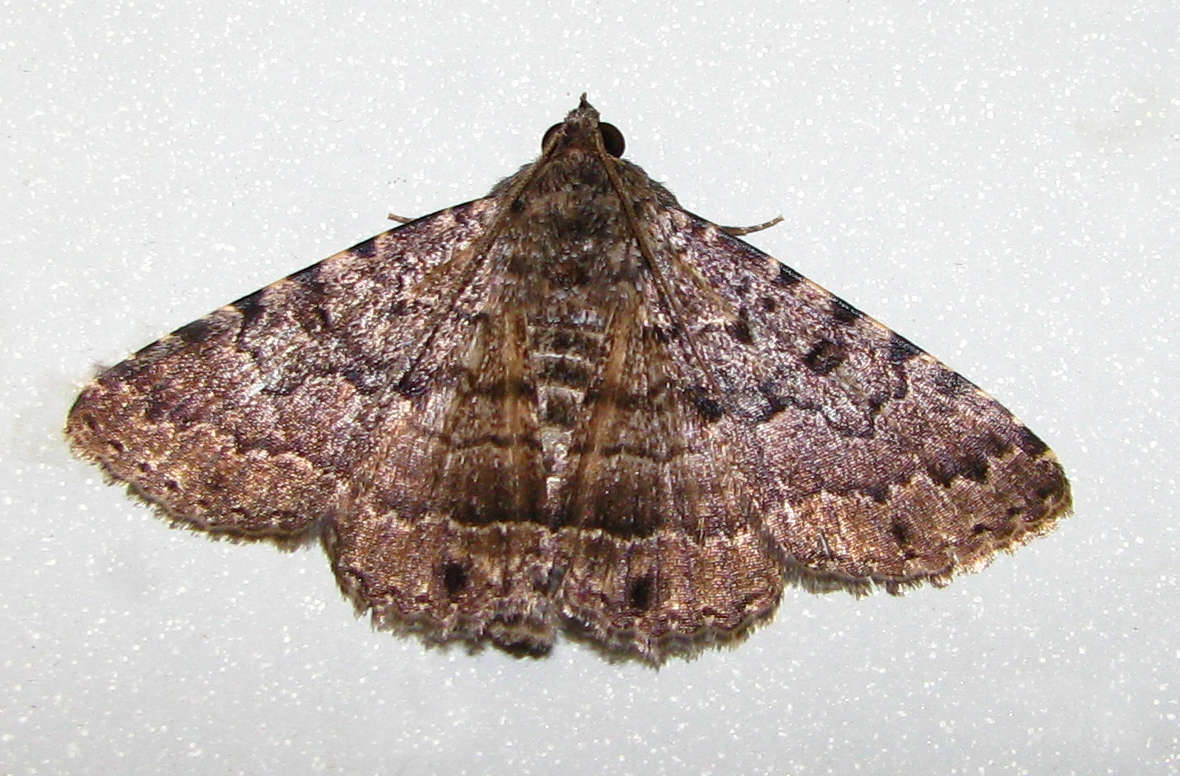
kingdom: Animalia
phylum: Arthropoda
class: Insecta
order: Lepidoptera
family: Erebidae
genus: Diatenes
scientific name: Diatenes aglossoides
